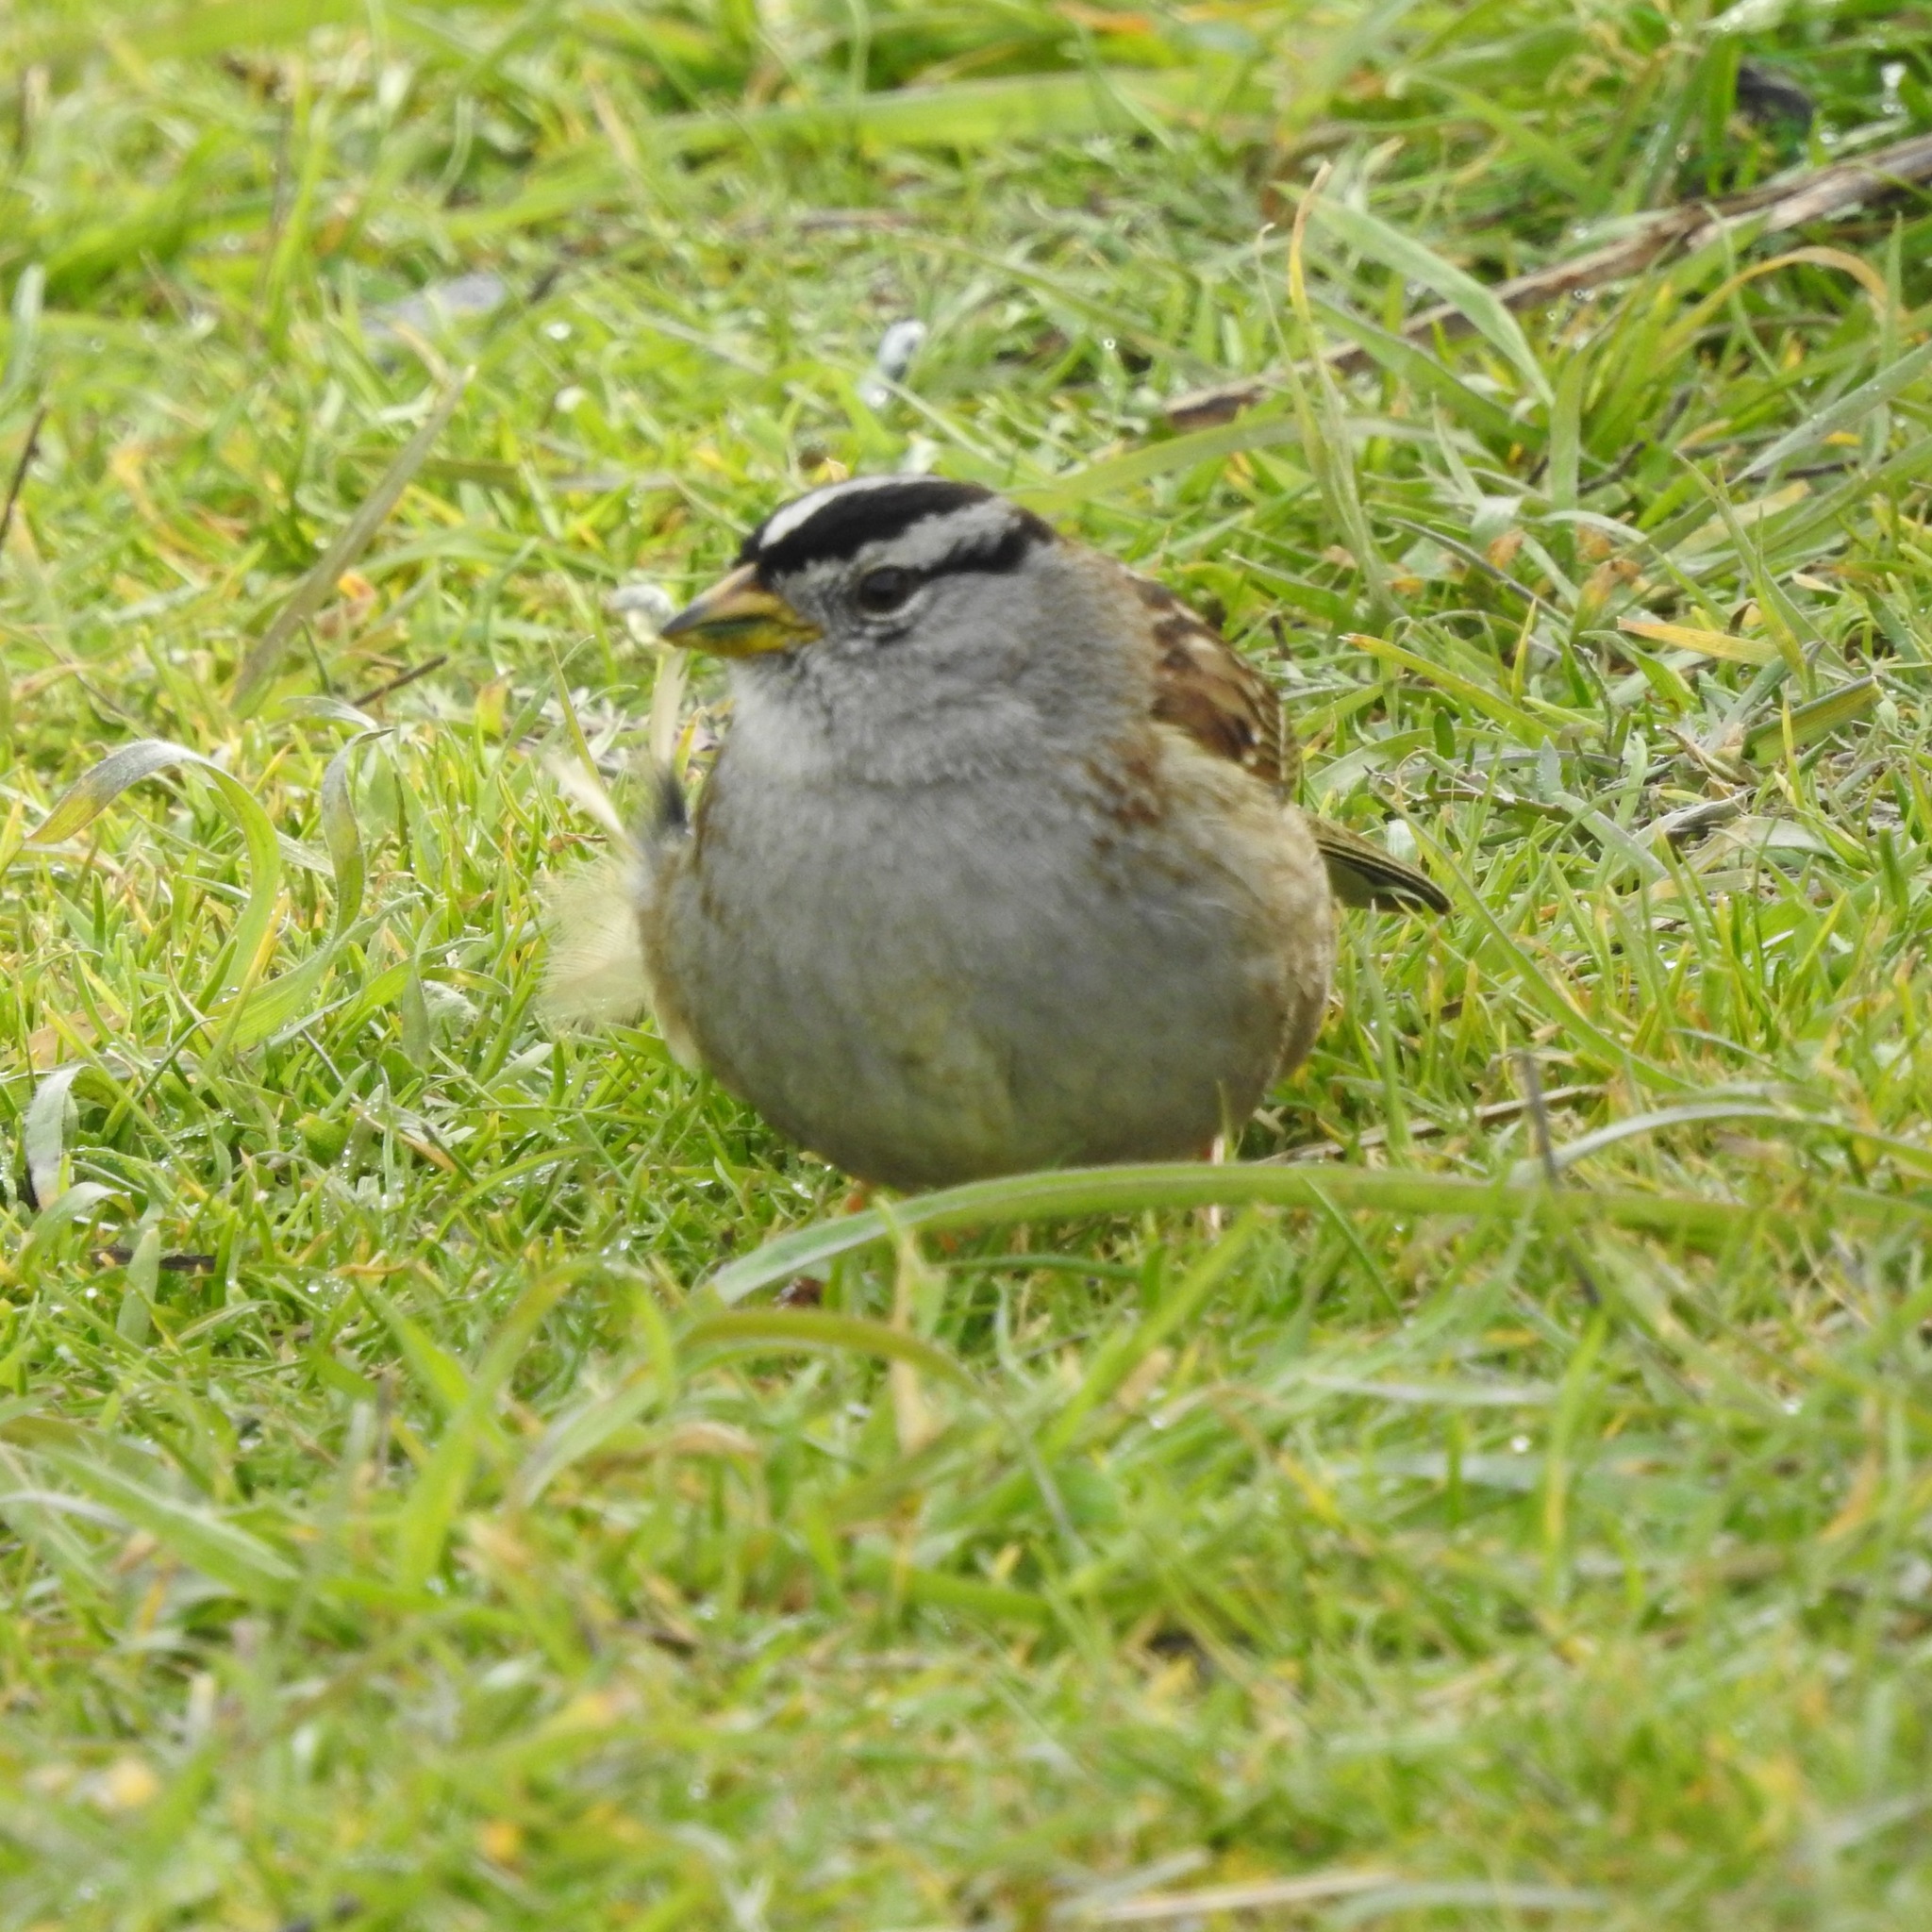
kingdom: Animalia
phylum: Chordata
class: Aves
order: Passeriformes
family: Passerellidae
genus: Zonotrichia
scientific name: Zonotrichia leucophrys
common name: White-crowned sparrow
